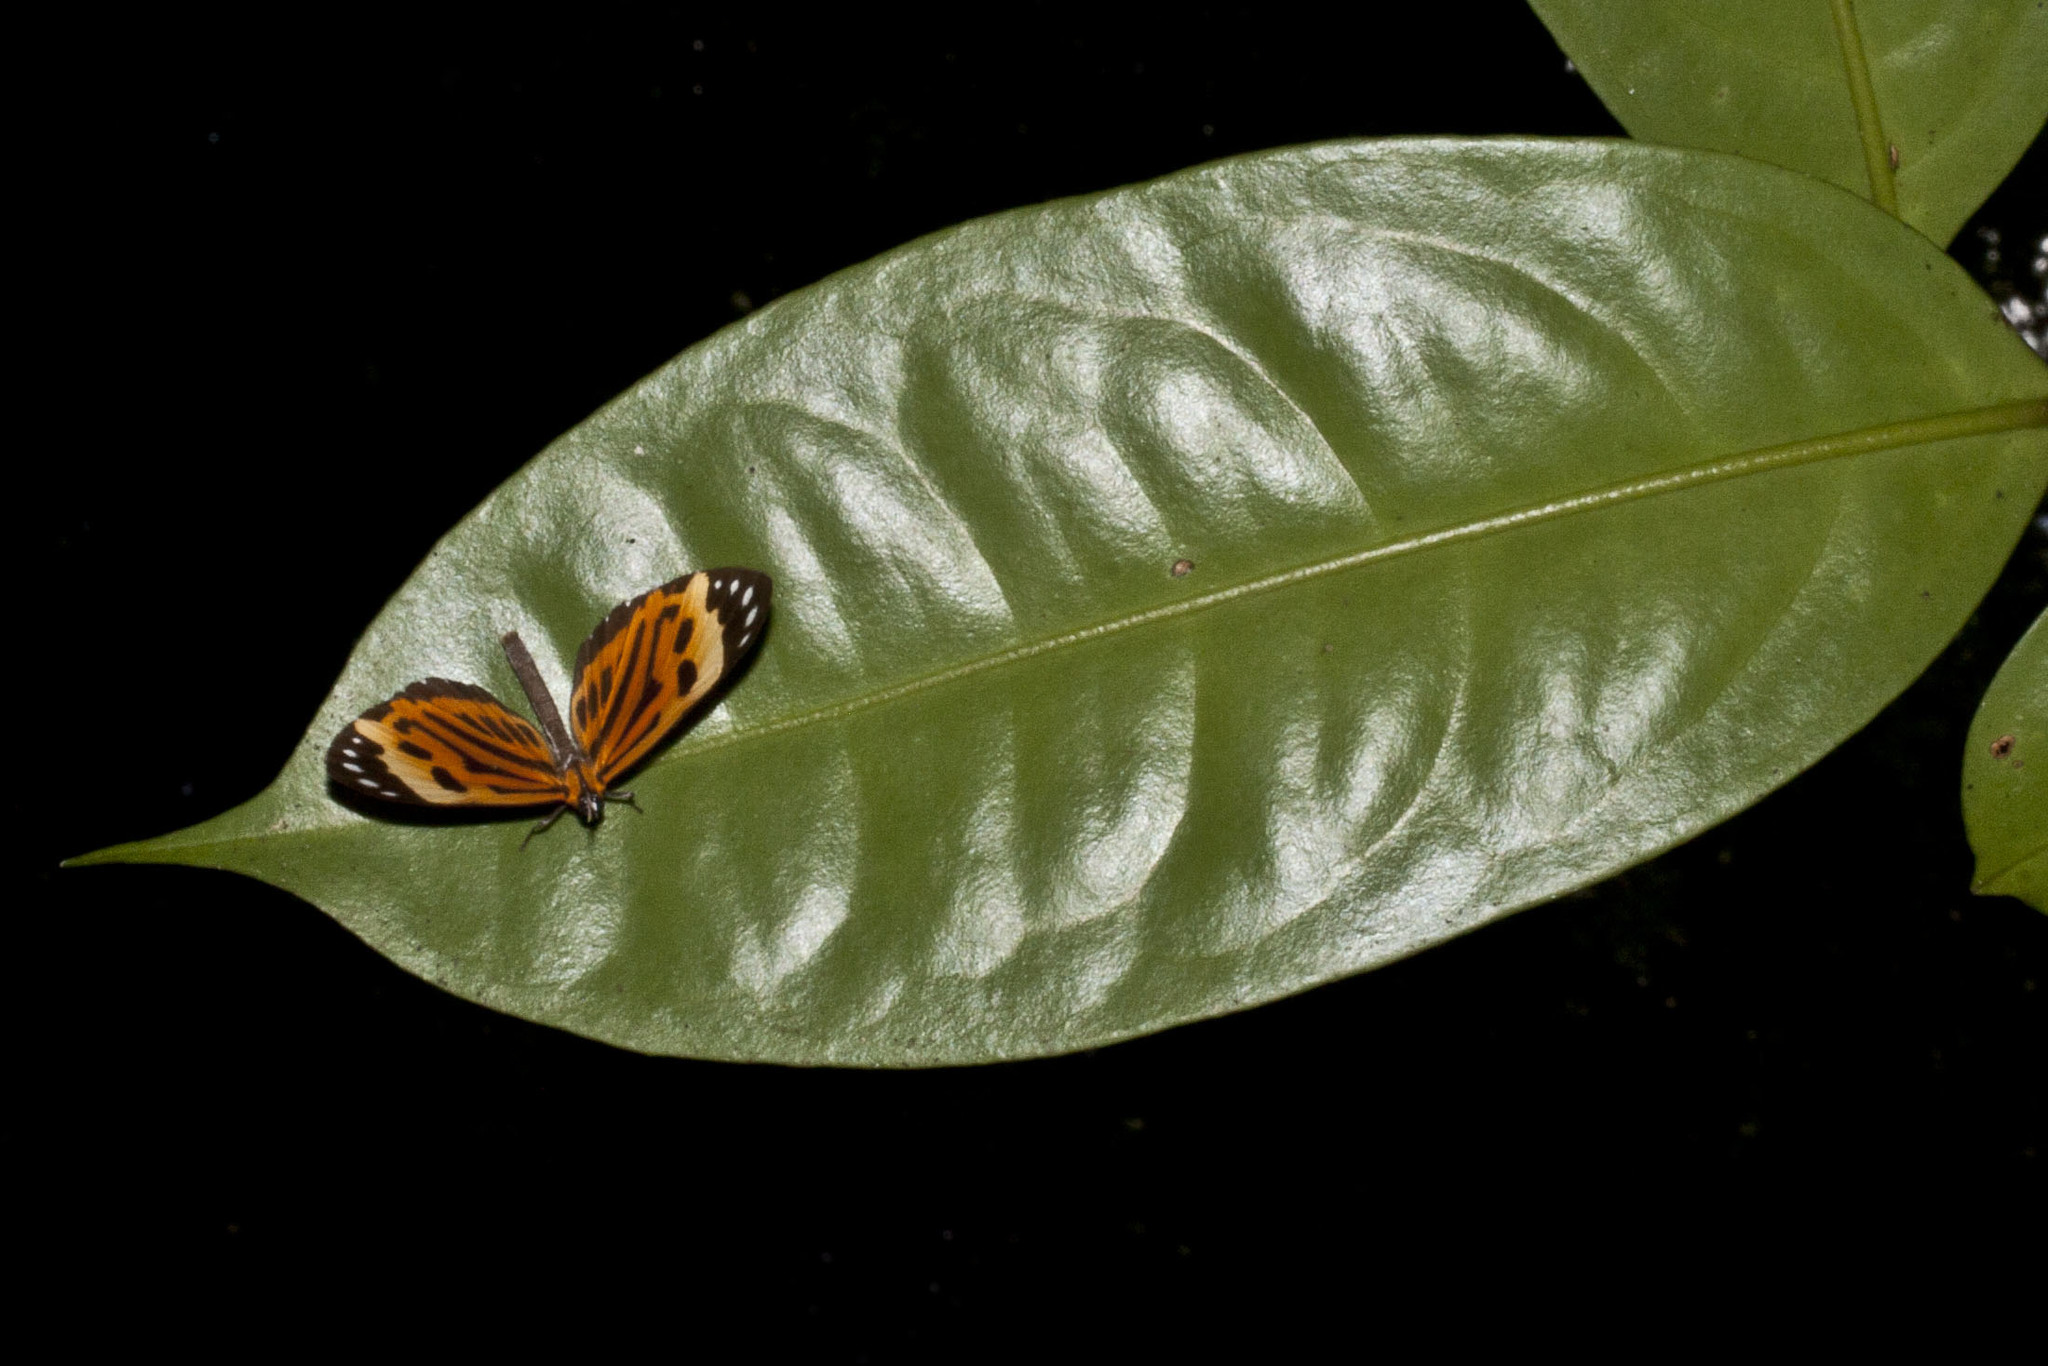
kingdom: Animalia
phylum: Arthropoda
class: Insecta
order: Lepidoptera
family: Riodinidae
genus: Stalachtis
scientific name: Stalachtis calliope
